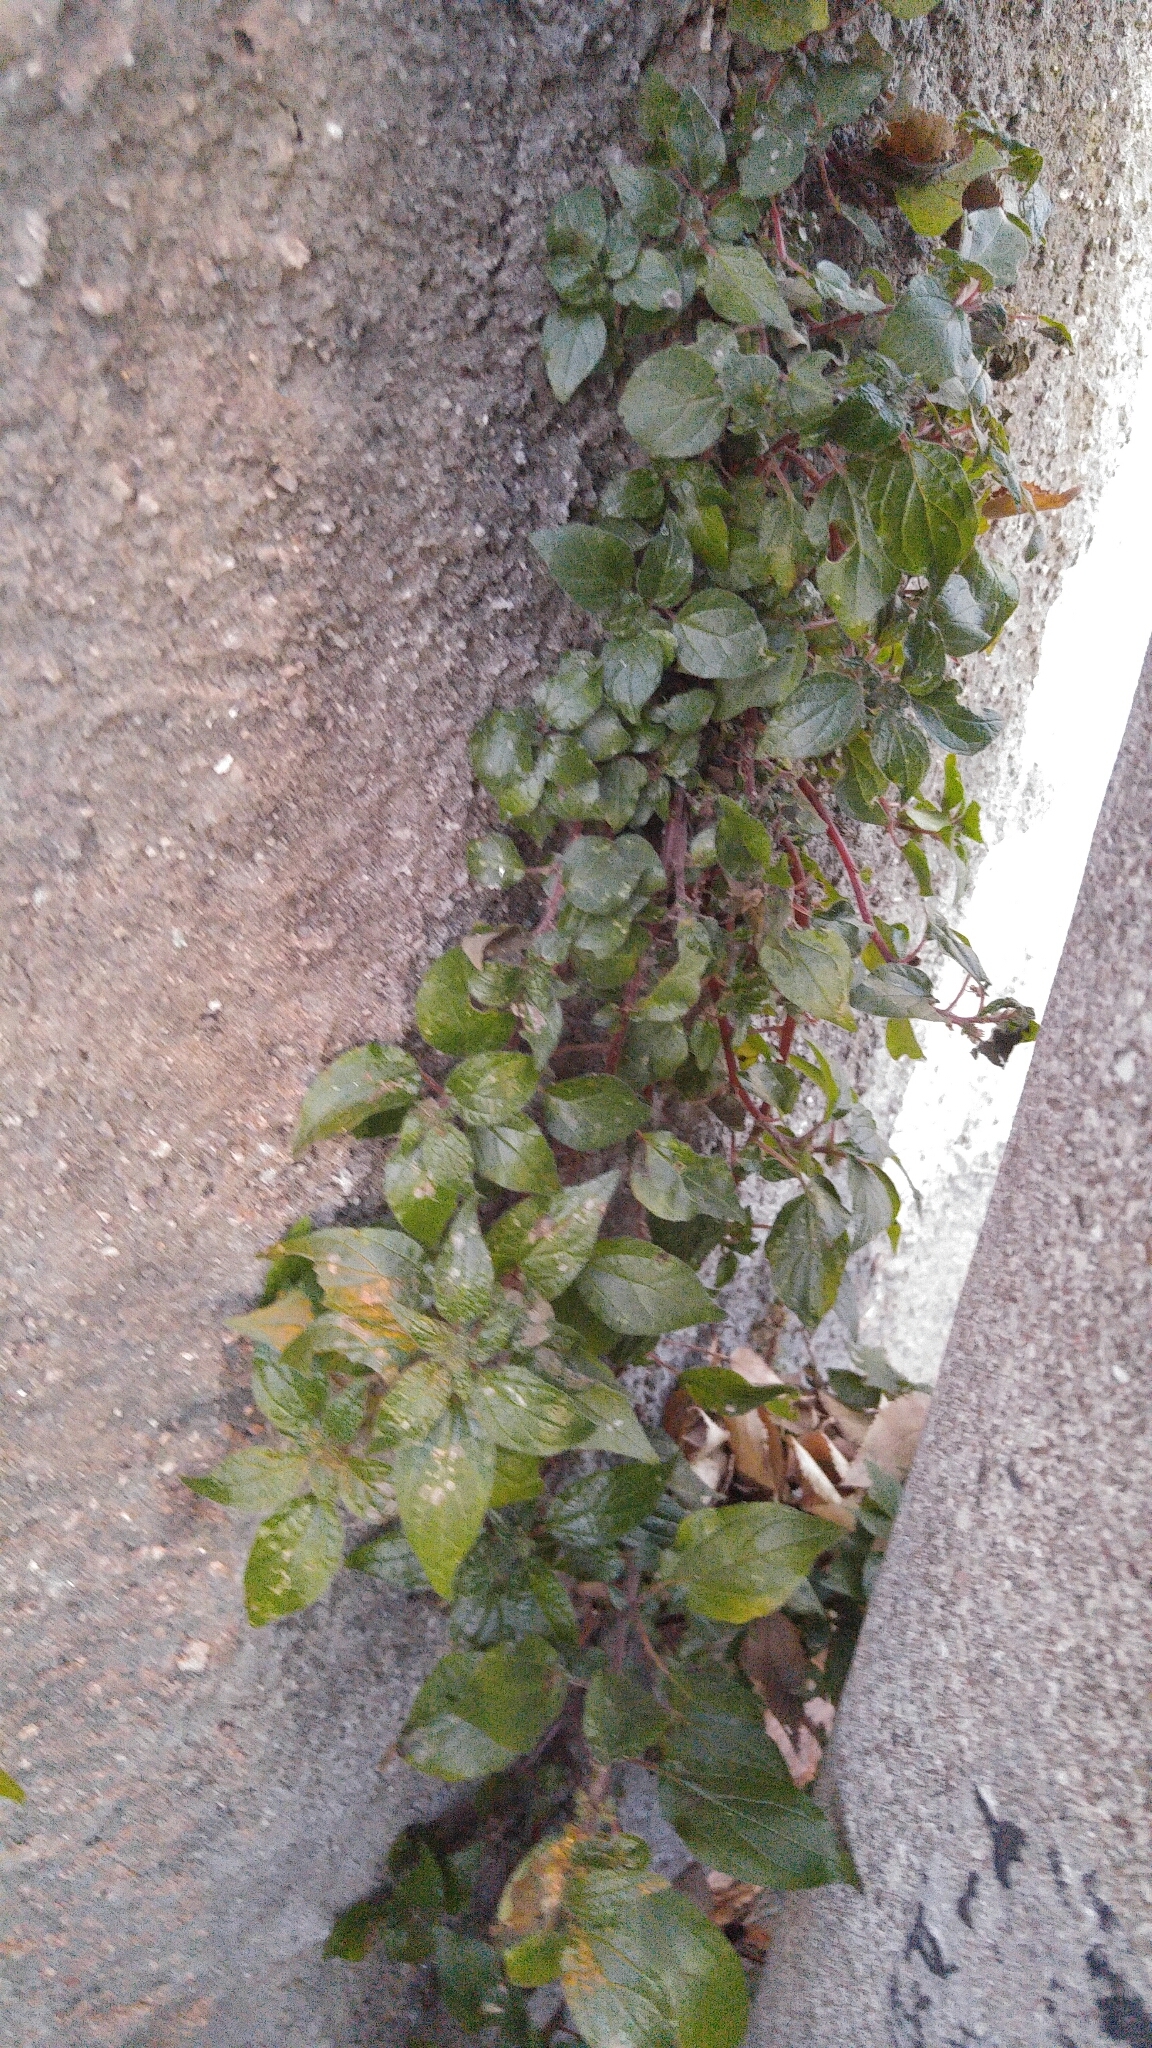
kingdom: Plantae
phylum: Tracheophyta
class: Magnoliopsida
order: Rosales
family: Urticaceae
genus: Parietaria
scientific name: Parietaria judaica
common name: Pellitory-of-the-wall
